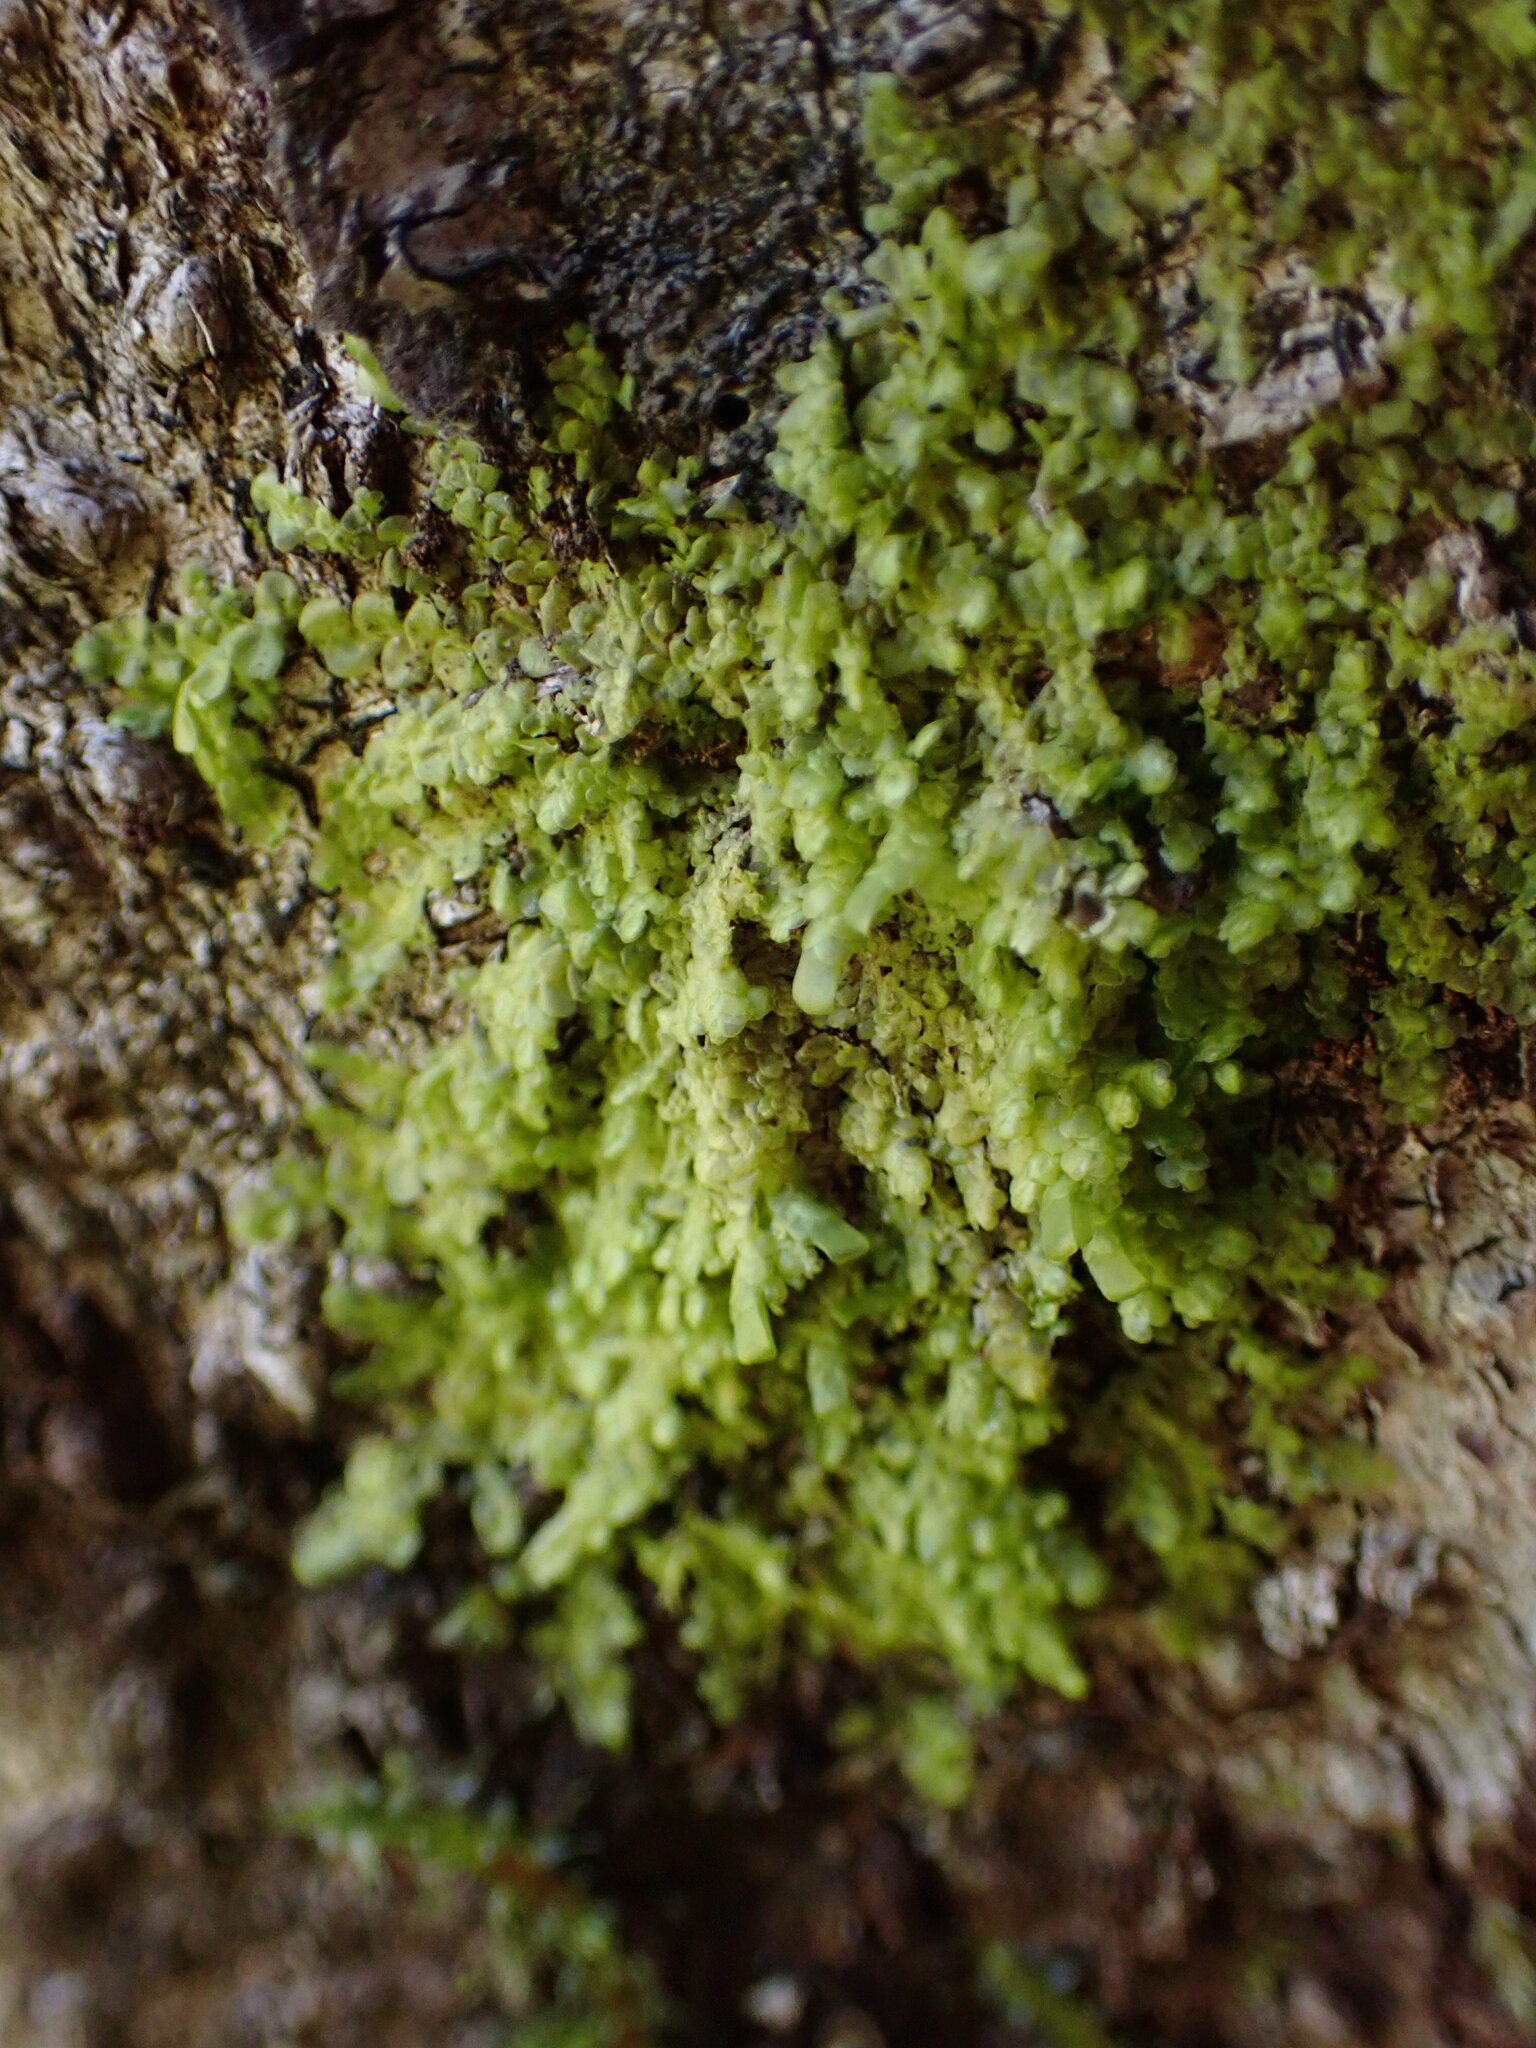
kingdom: Plantae
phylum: Marchantiophyta
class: Jungermanniopsida
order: Porellales
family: Radulaceae
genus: Radula
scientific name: Radula complanata
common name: Flat-leaved scalewort
